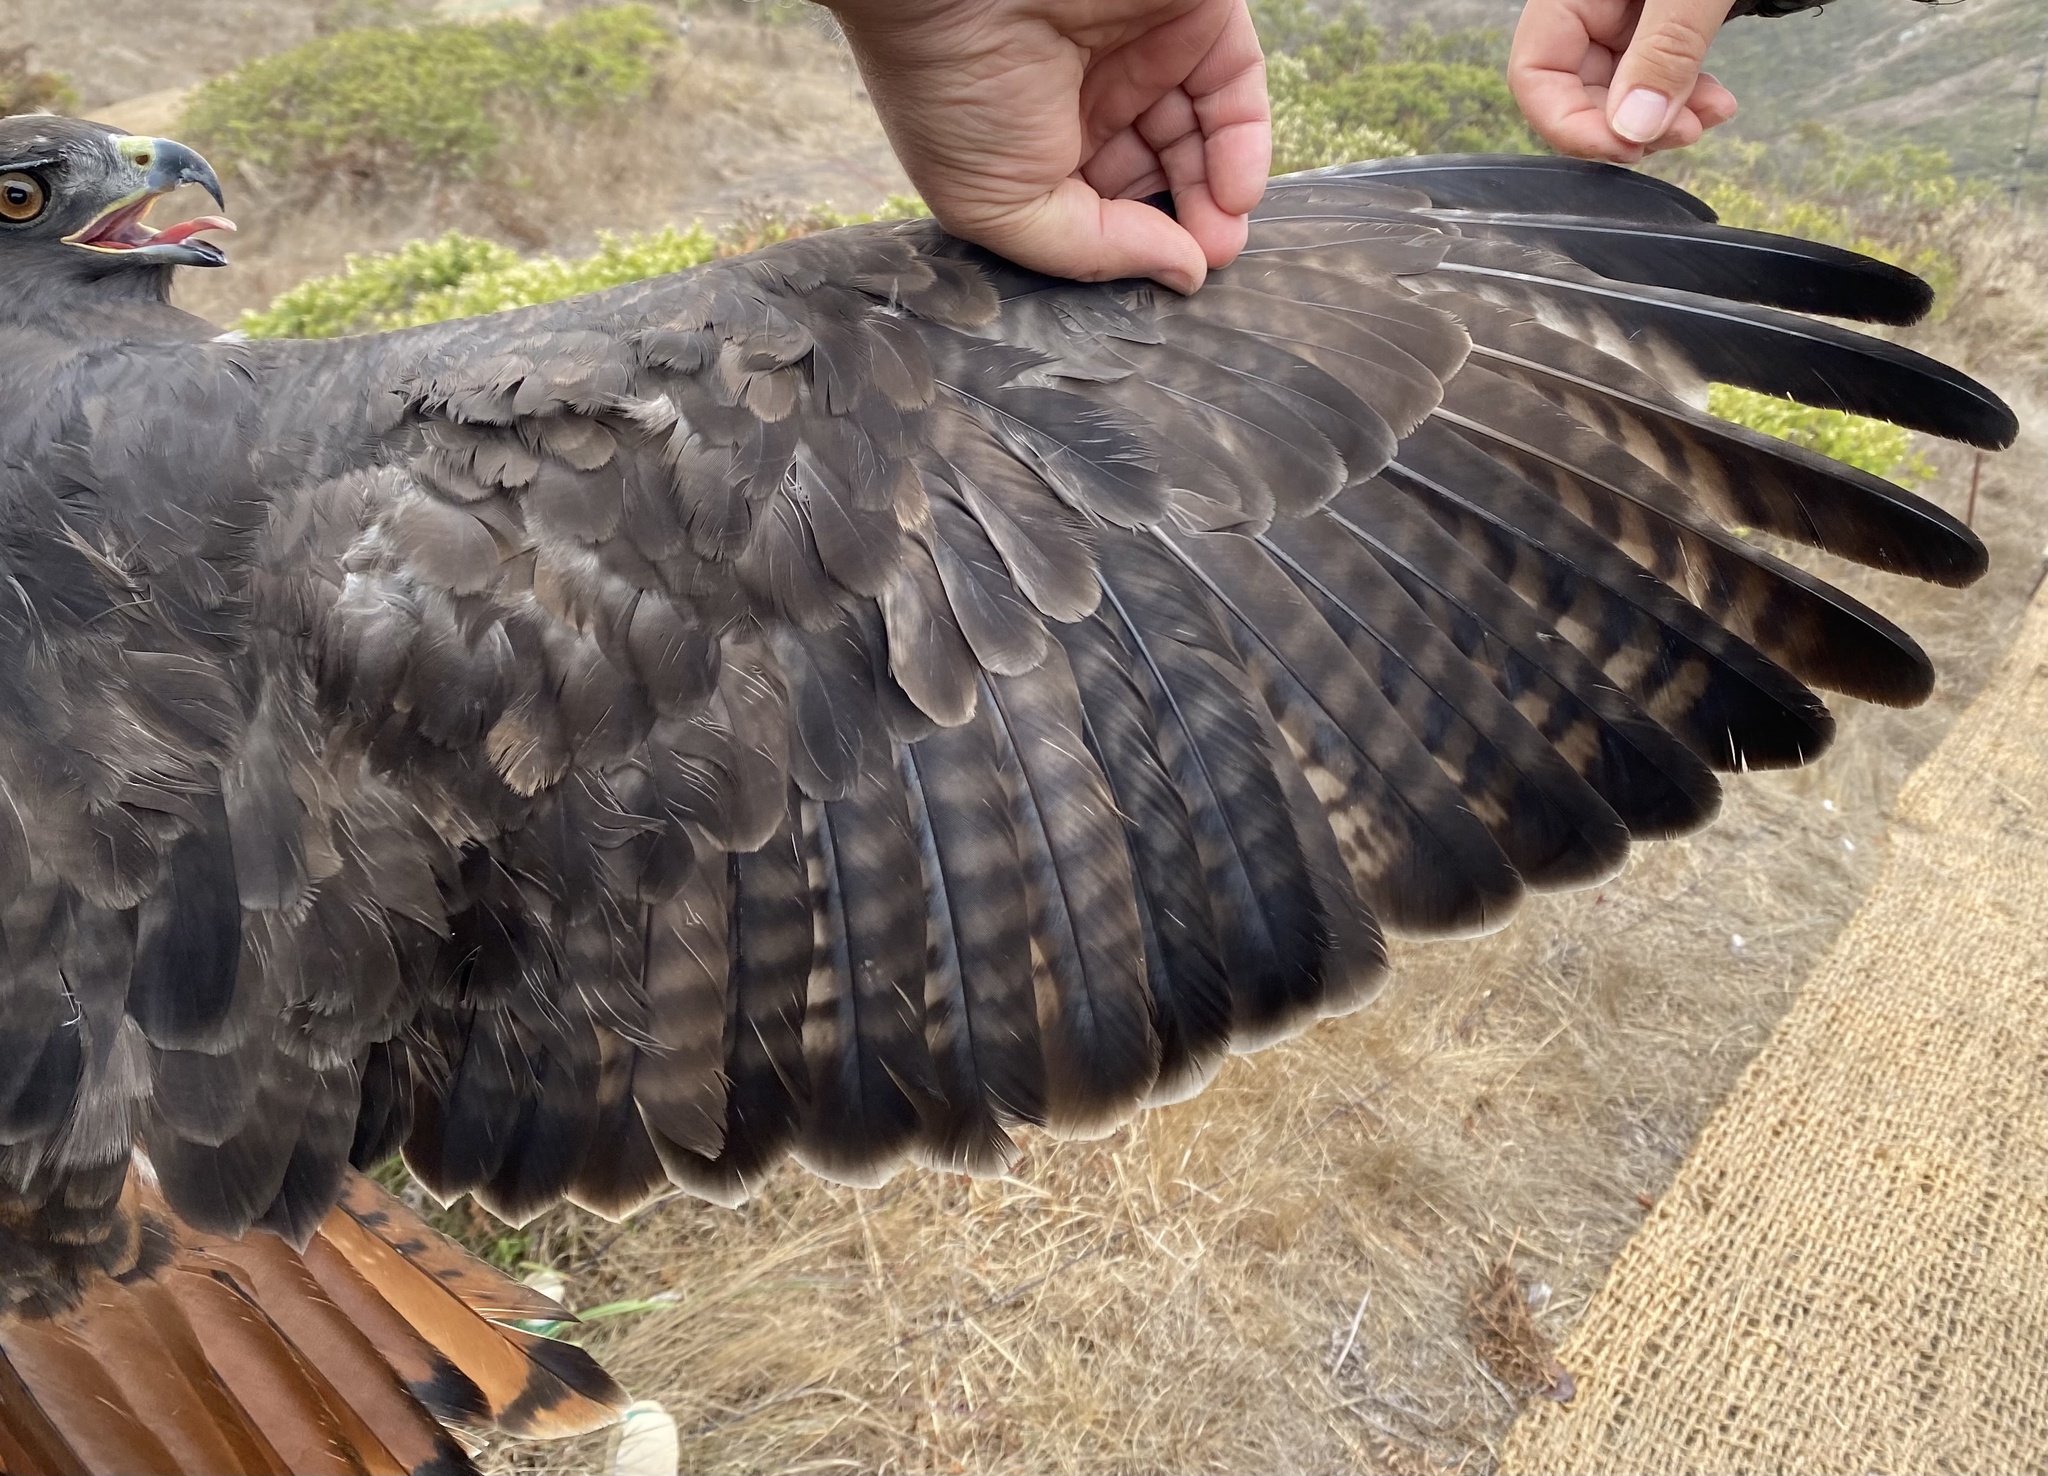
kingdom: Animalia
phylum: Chordata
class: Aves
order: Accipitriformes
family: Accipitridae
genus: Buteo
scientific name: Buteo jamaicensis
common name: Red-tailed hawk
